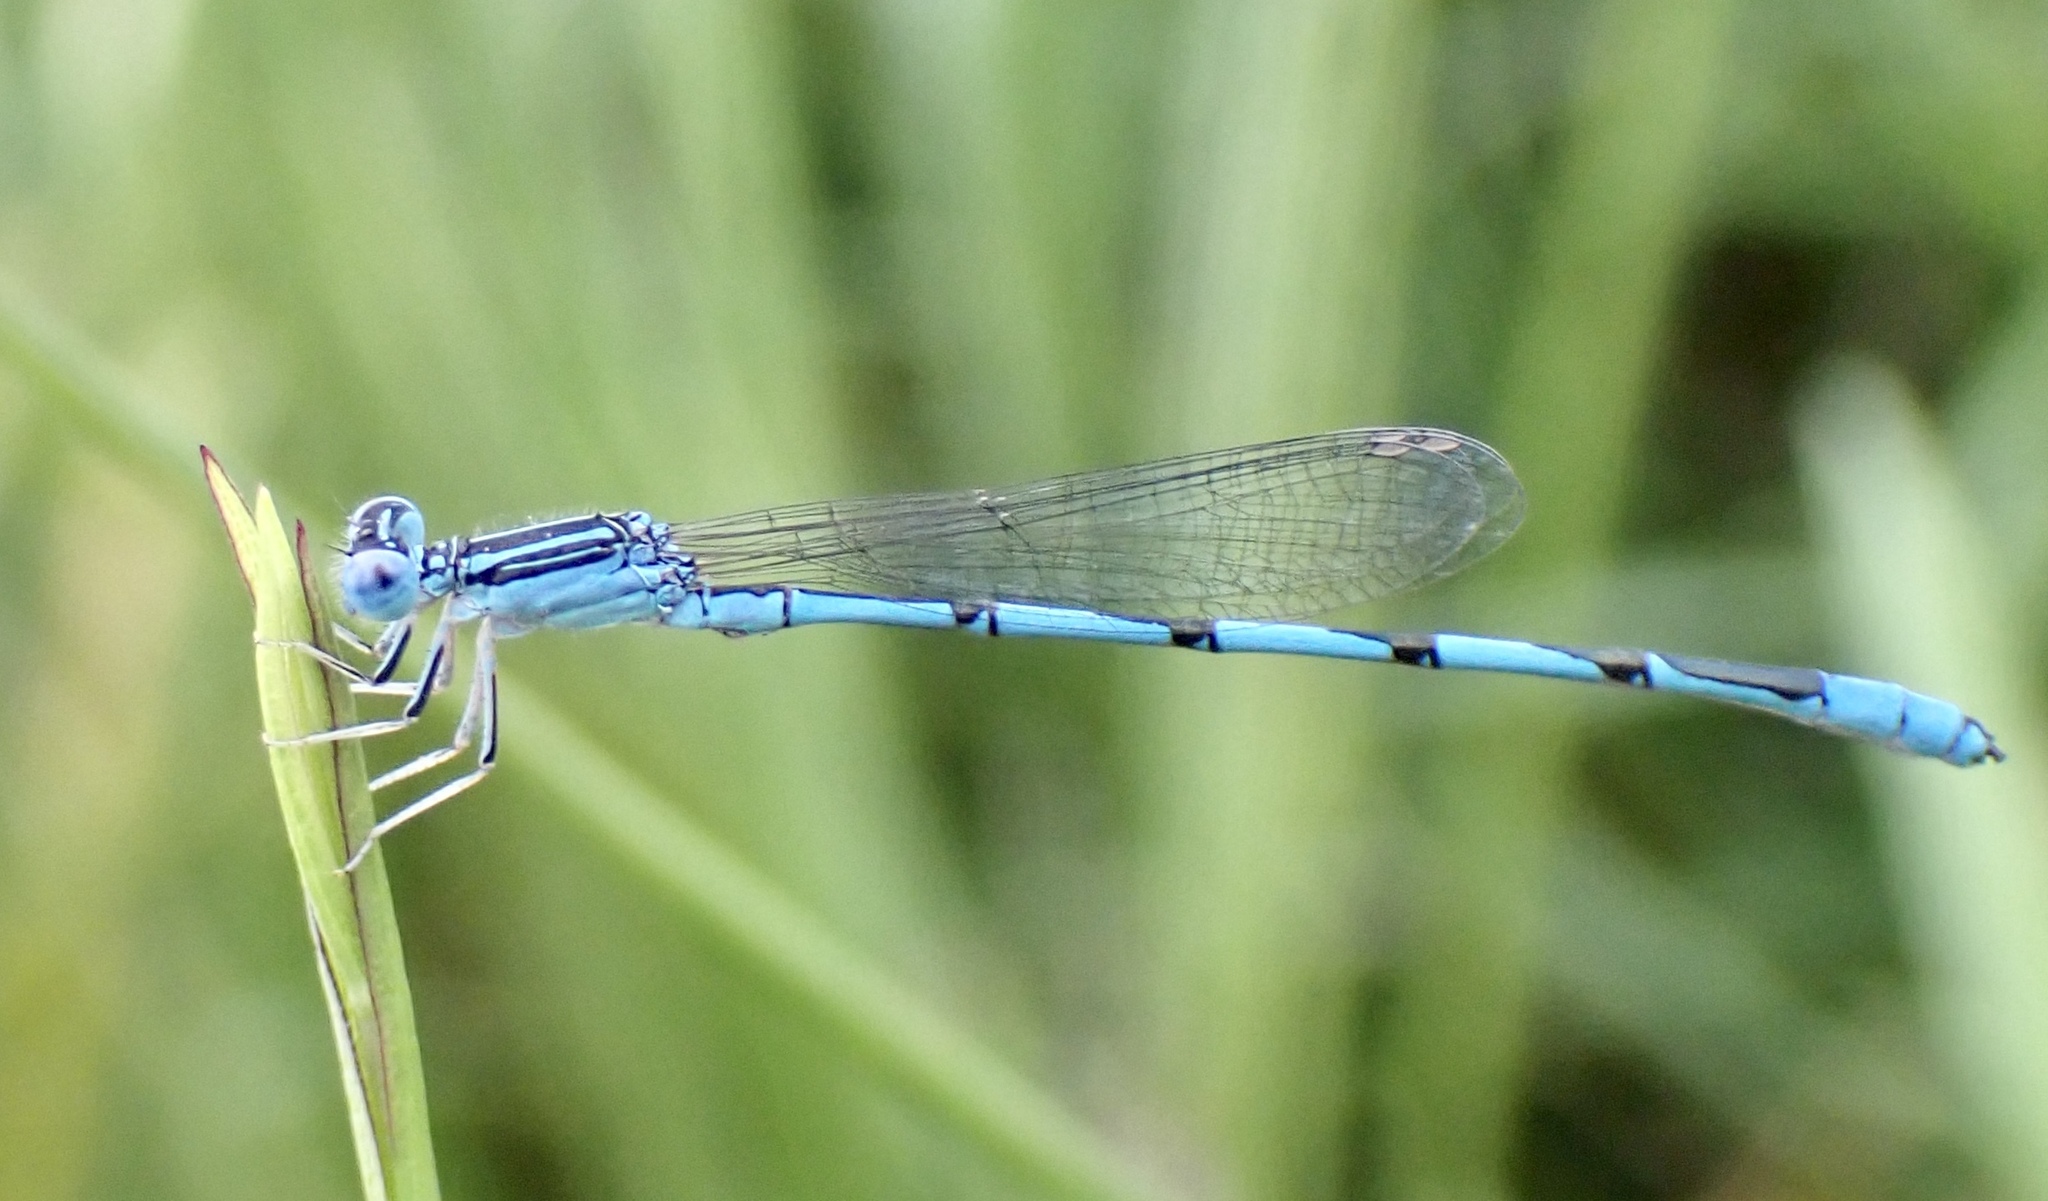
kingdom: Animalia
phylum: Arthropoda
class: Insecta
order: Odonata
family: Coenagrionidae
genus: Enallagma
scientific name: Enallagma basidens
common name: Double-striped bluet
